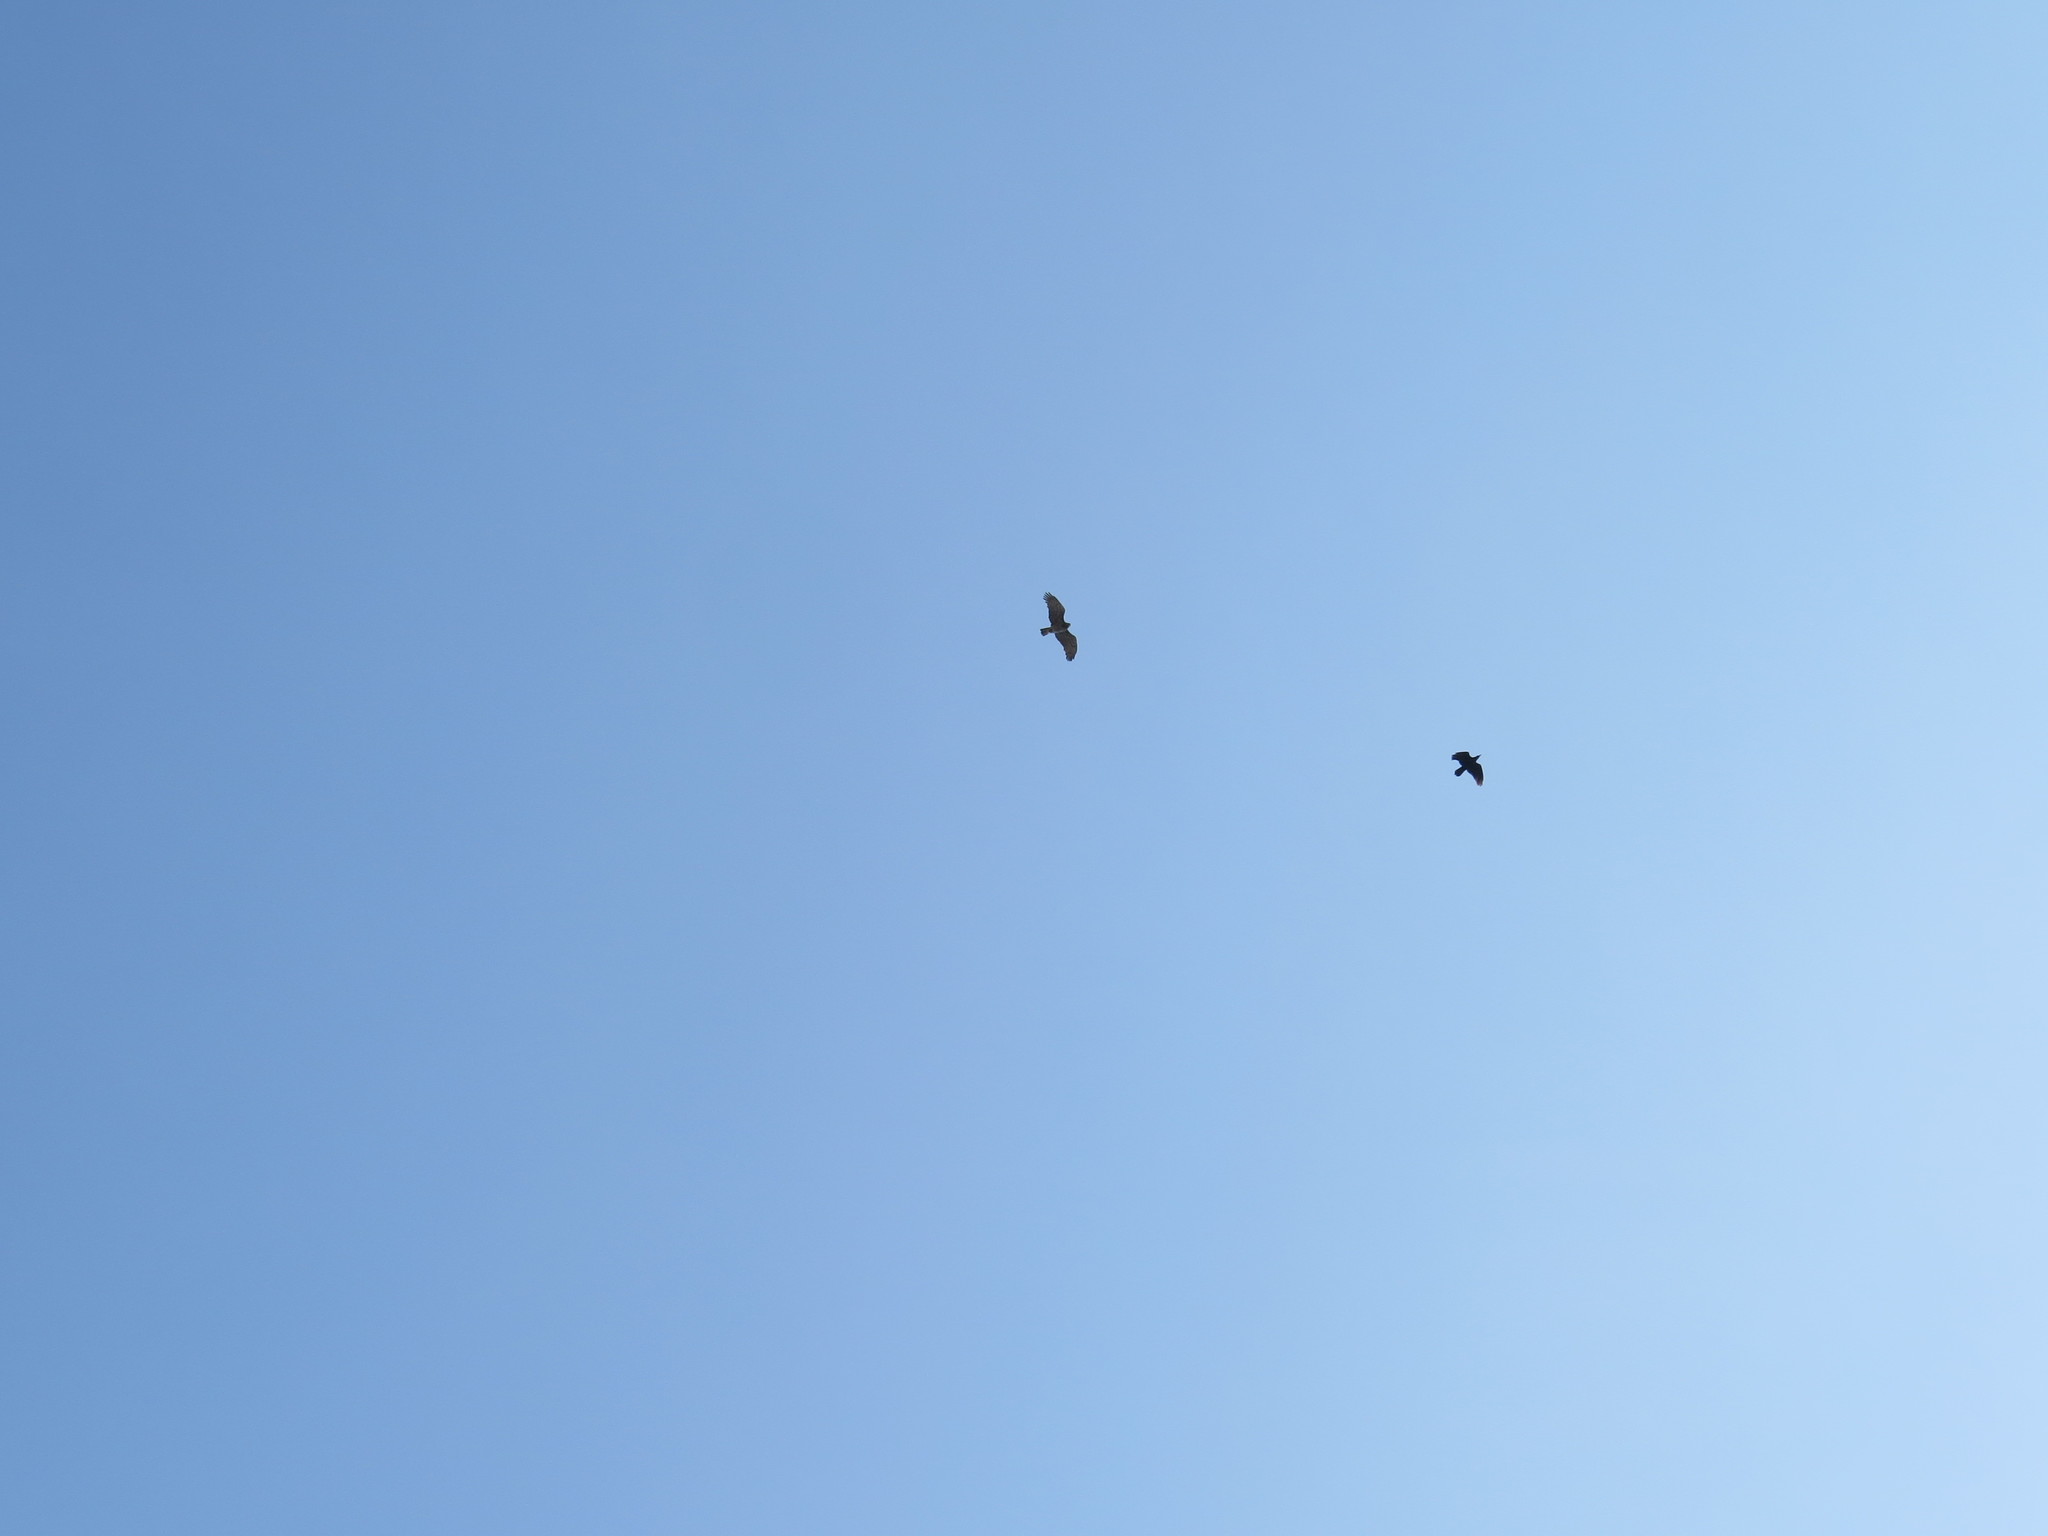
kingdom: Animalia
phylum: Chordata
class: Aves
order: Accipitriformes
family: Accipitridae
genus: Circaetus
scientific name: Circaetus gallicus
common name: Short-toed snake eagle
